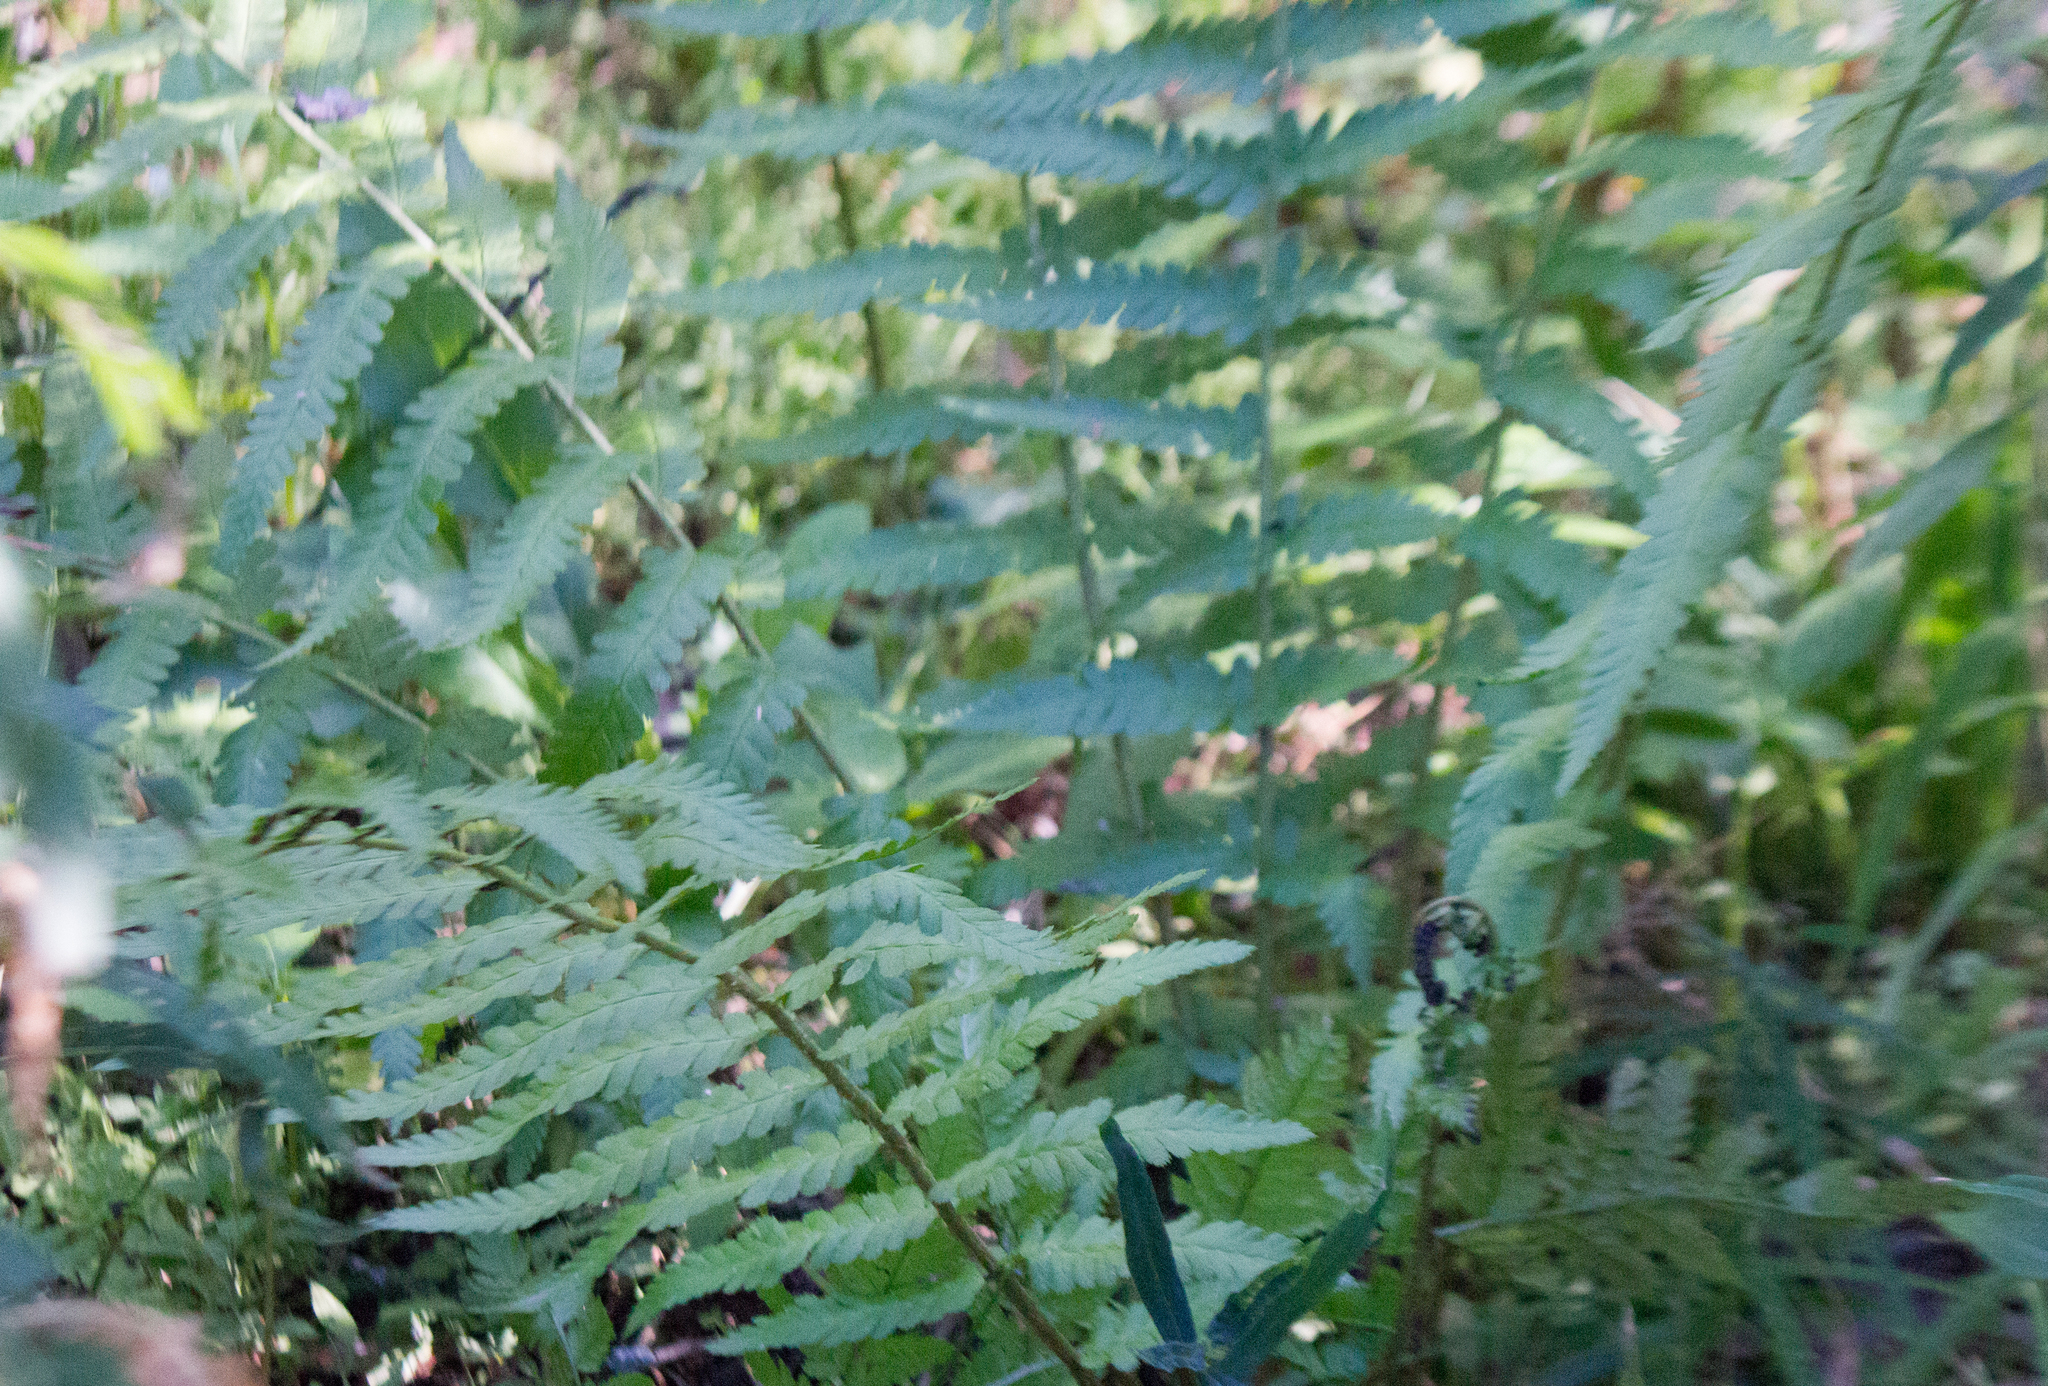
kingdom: Plantae
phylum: Tracheophyta
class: Polypodiopsida
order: Polypodiales
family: Dryopteridaceae
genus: Dryopteris
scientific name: Dryopteris filix-mas
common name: Male fern
